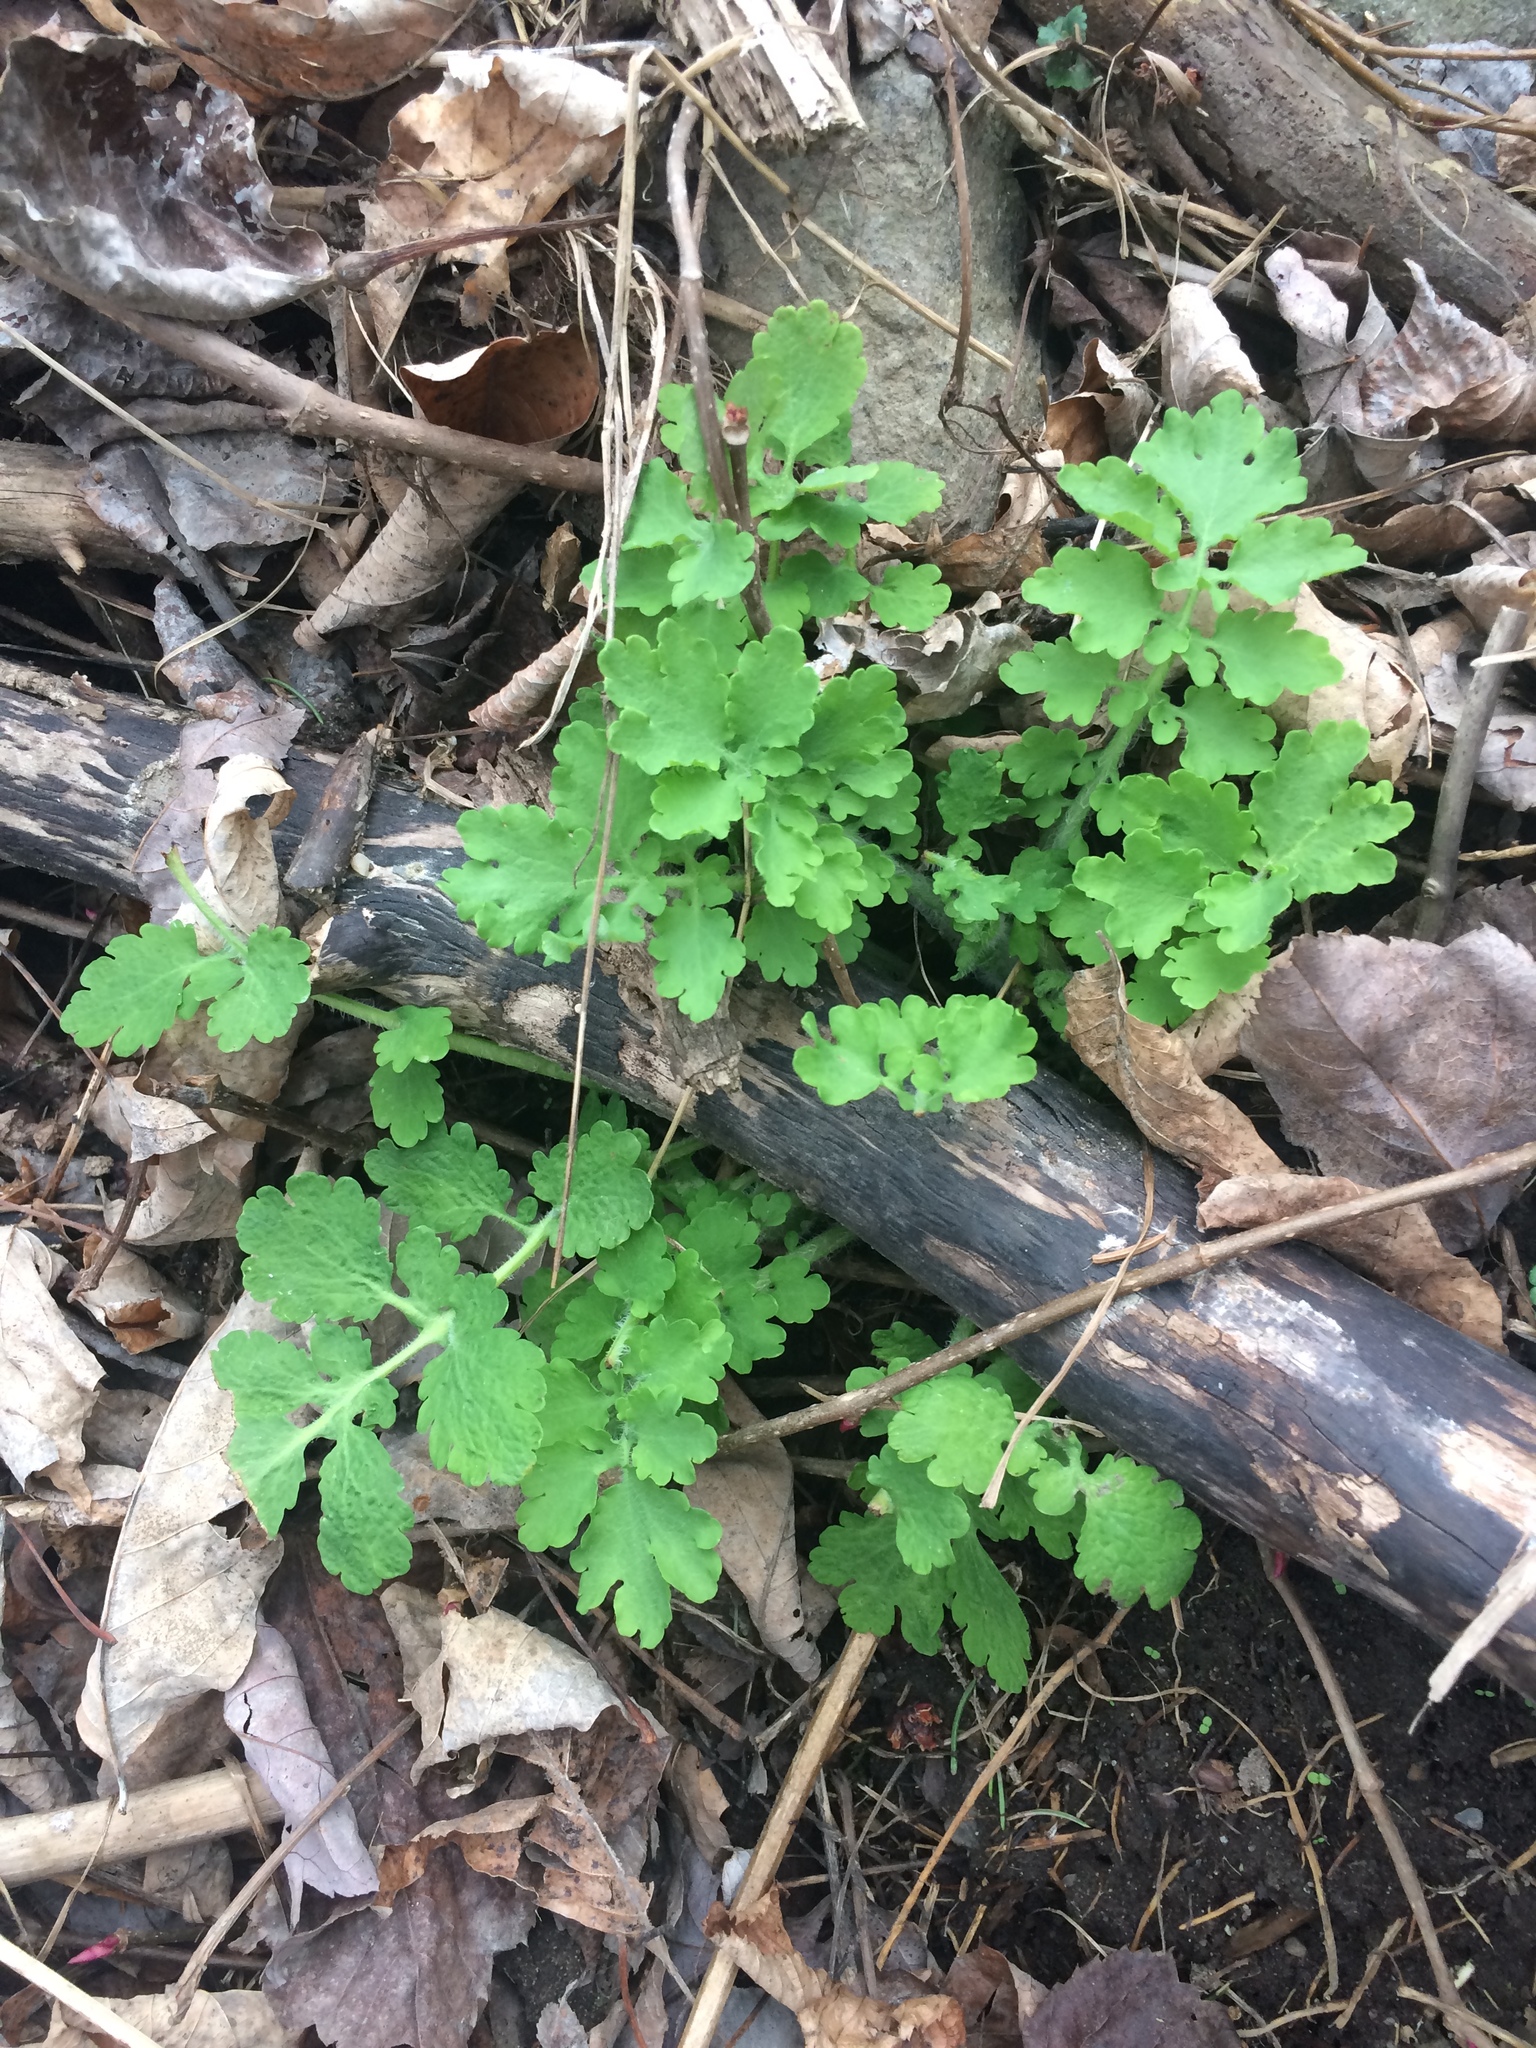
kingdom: Plantae
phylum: Tracheophyta
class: Magnoliopsida
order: Ranunculales
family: Papaveraceae
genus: Chelidonium
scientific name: Chelidonium majus
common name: Greater celandine
